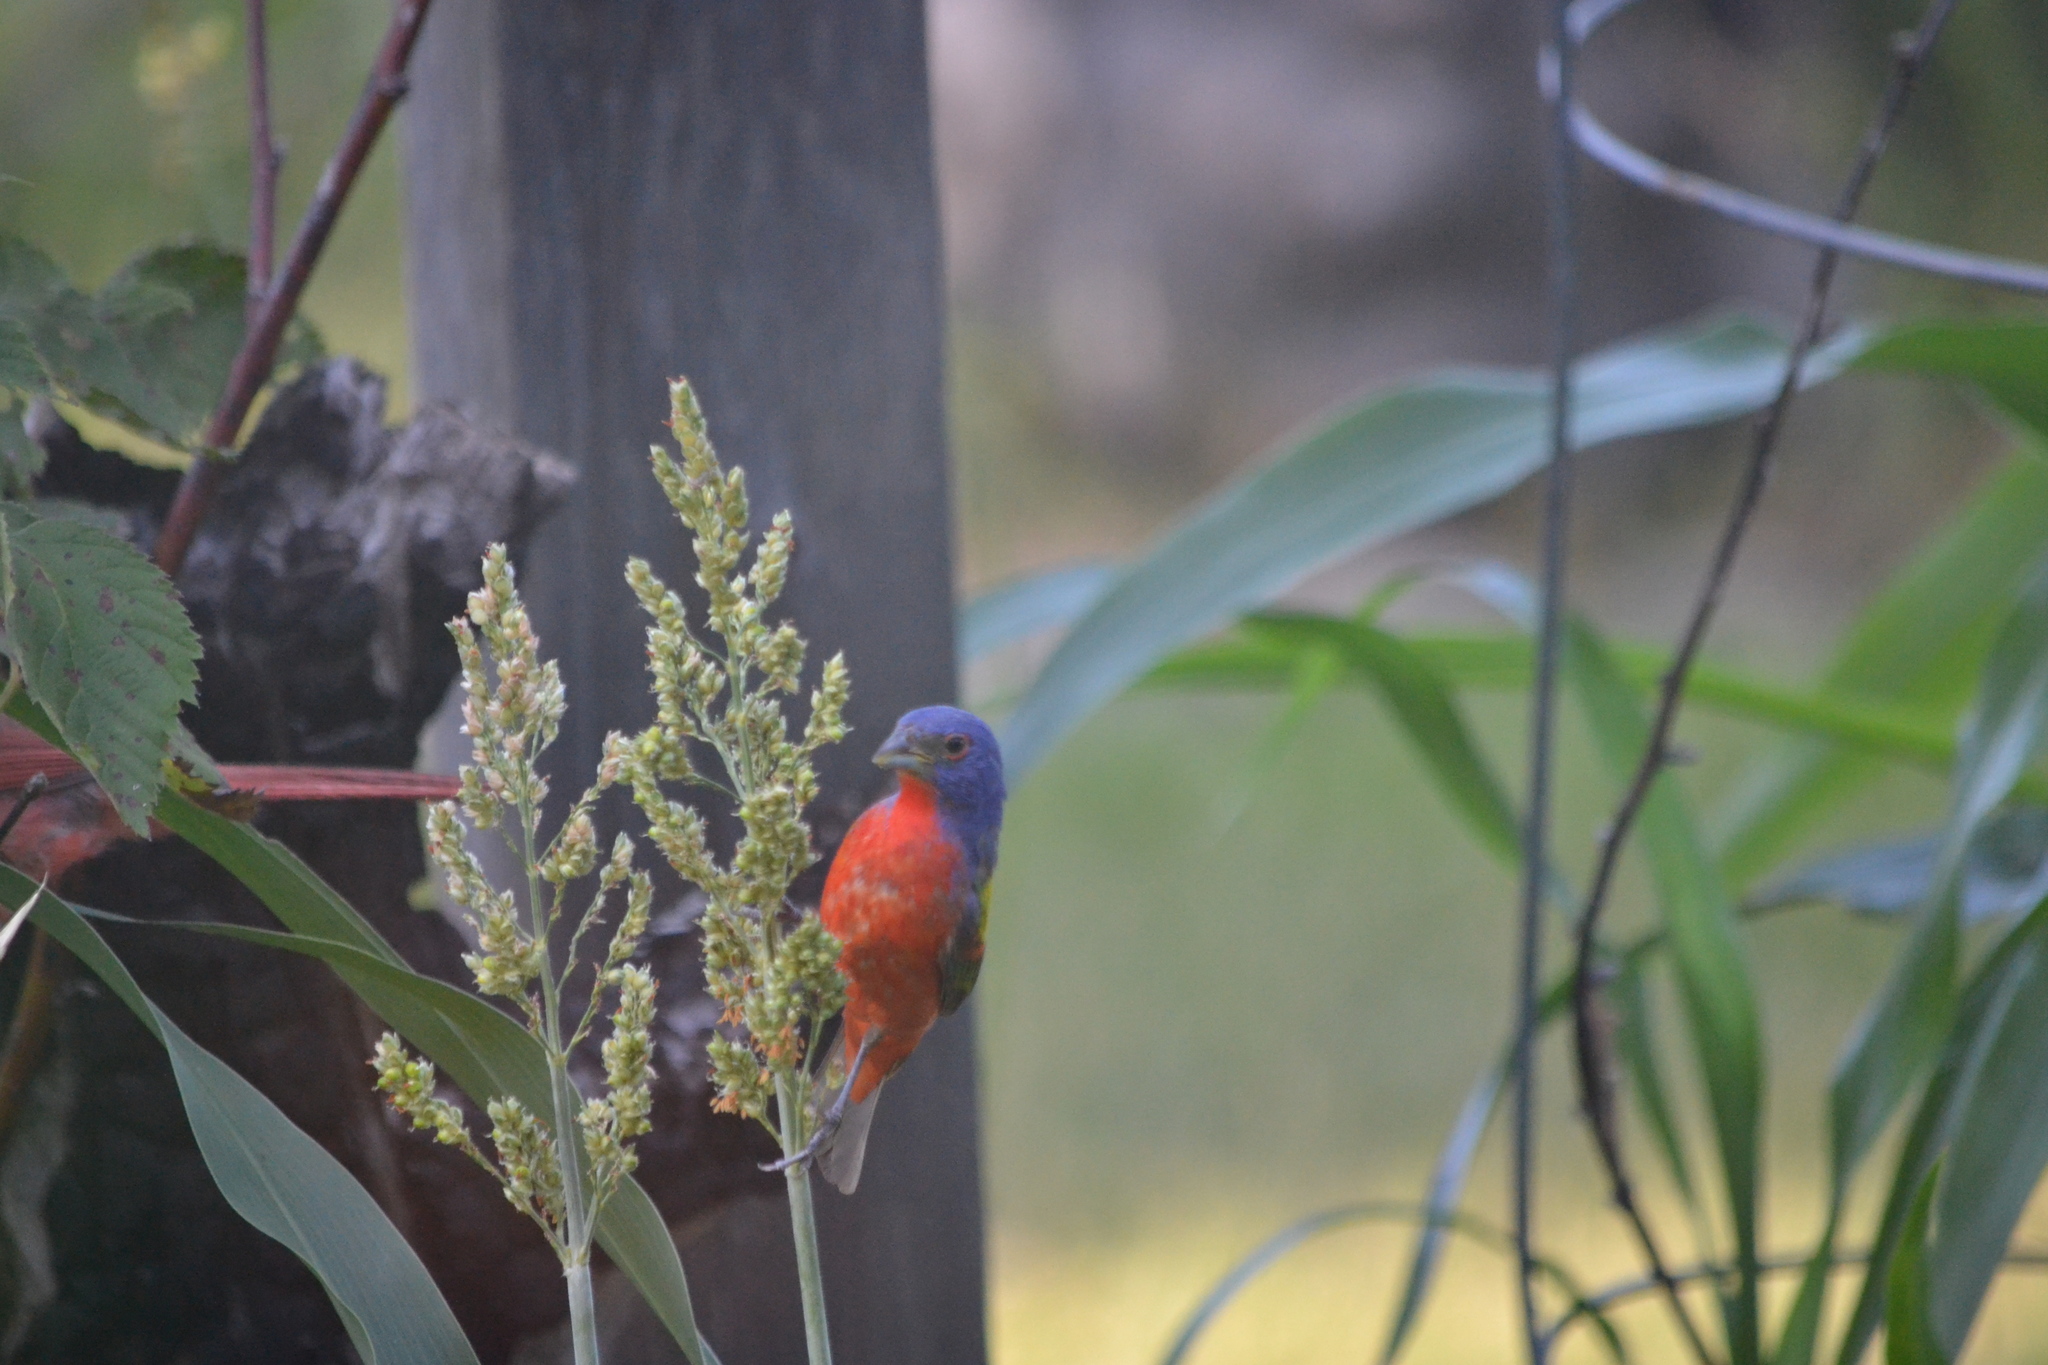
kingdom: Animalia
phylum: Chordata
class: Aves
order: Passeriformes
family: Cardinalidae
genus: Passerina
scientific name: Passerina ciris
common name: Painted bunting
